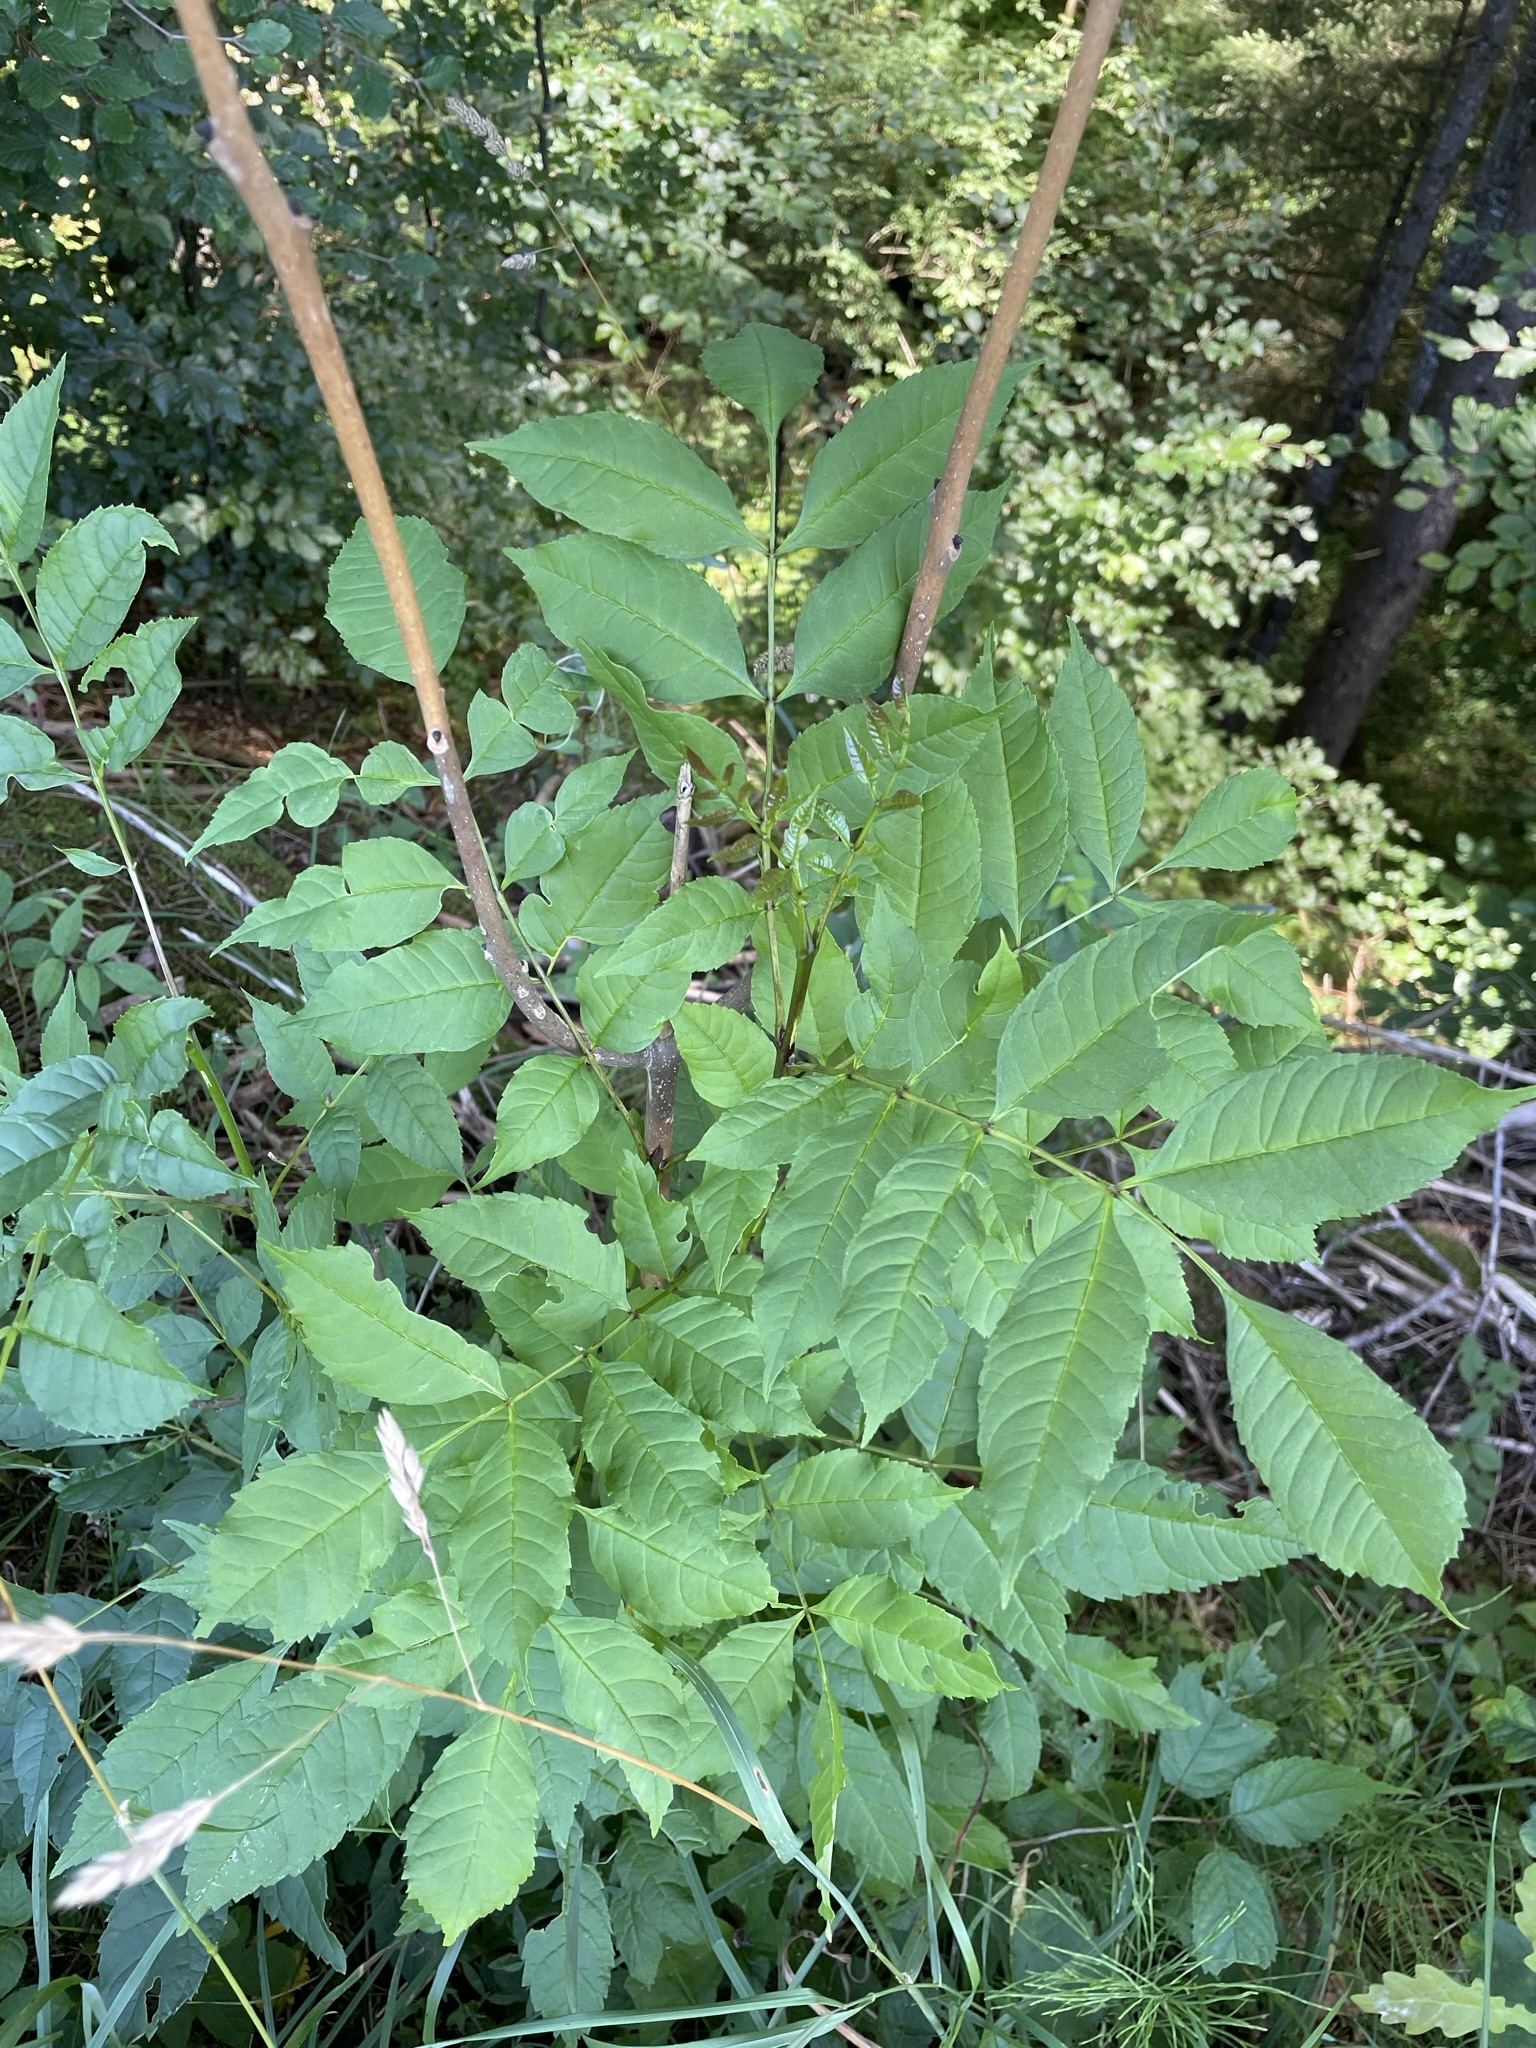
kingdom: Plantae
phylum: Tracheophyta
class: Magnoliopsida
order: Lamiales
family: Oleaceae
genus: Fraxinus
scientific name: Fraxinus excelsior
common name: European ash
